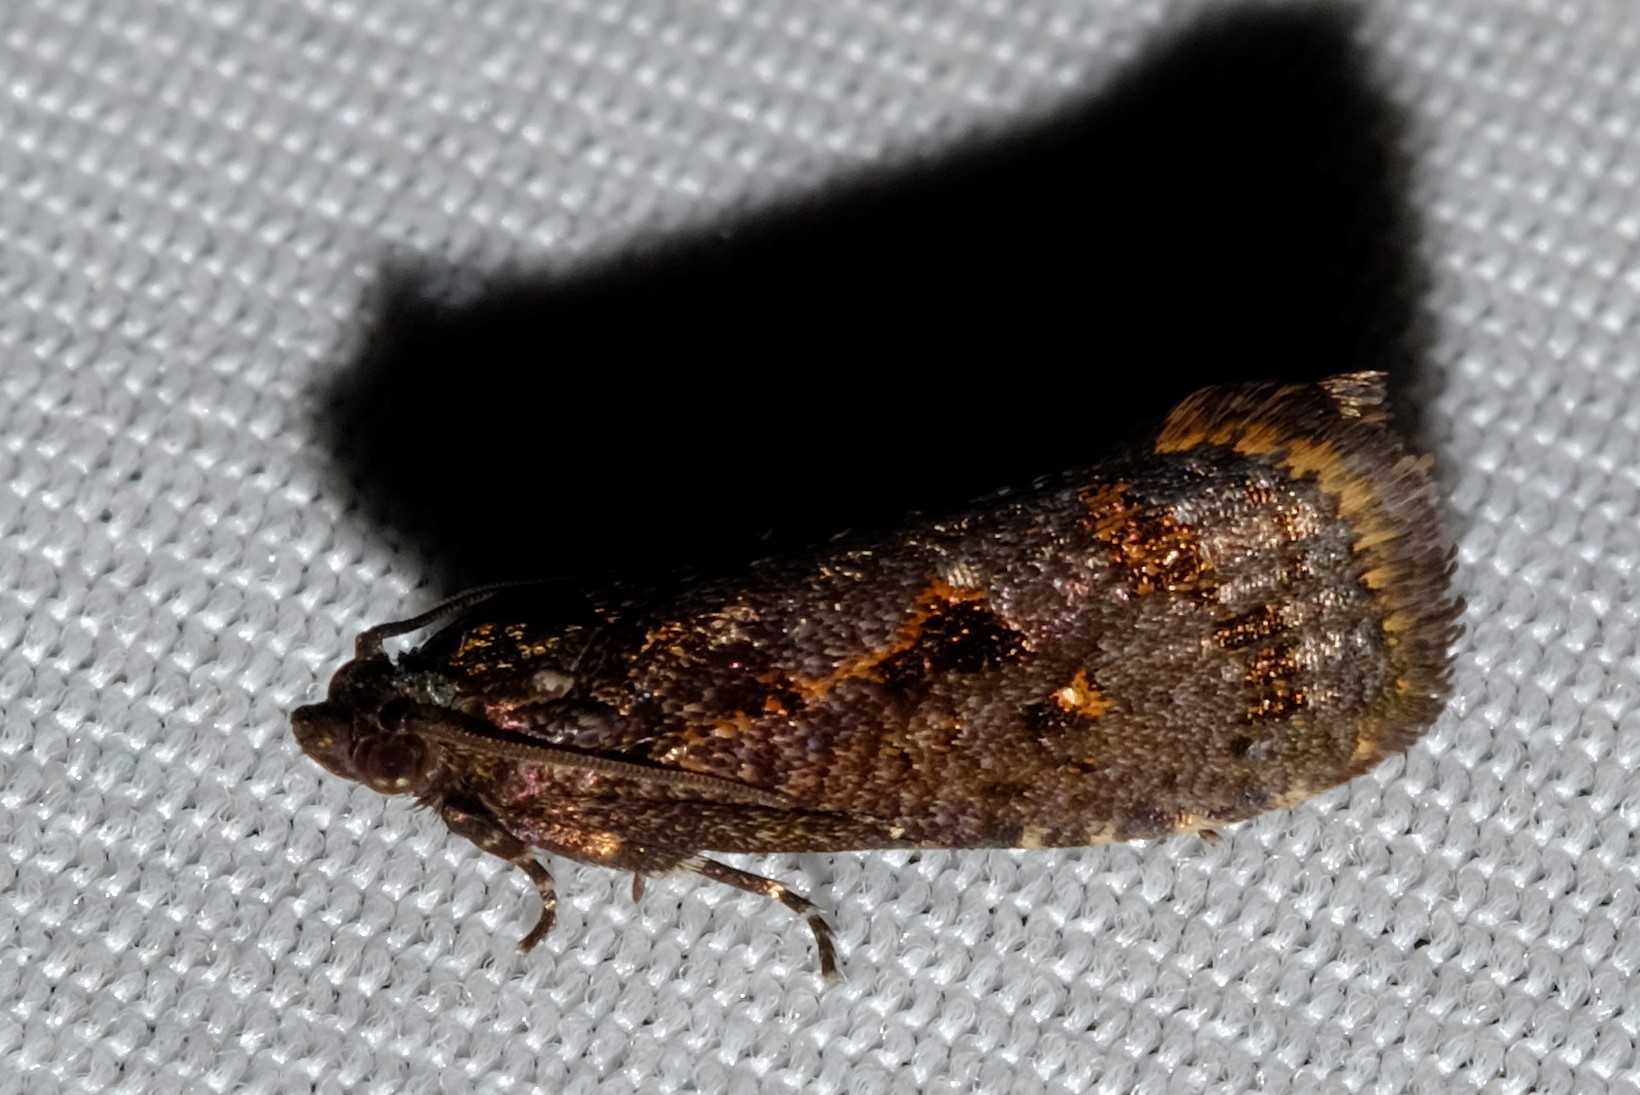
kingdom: Animalia
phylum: Arthropoda
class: Insecta
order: Lepidoptera
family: Tortricidae
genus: Cryptaspasma
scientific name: Cryptaspasma sordida
